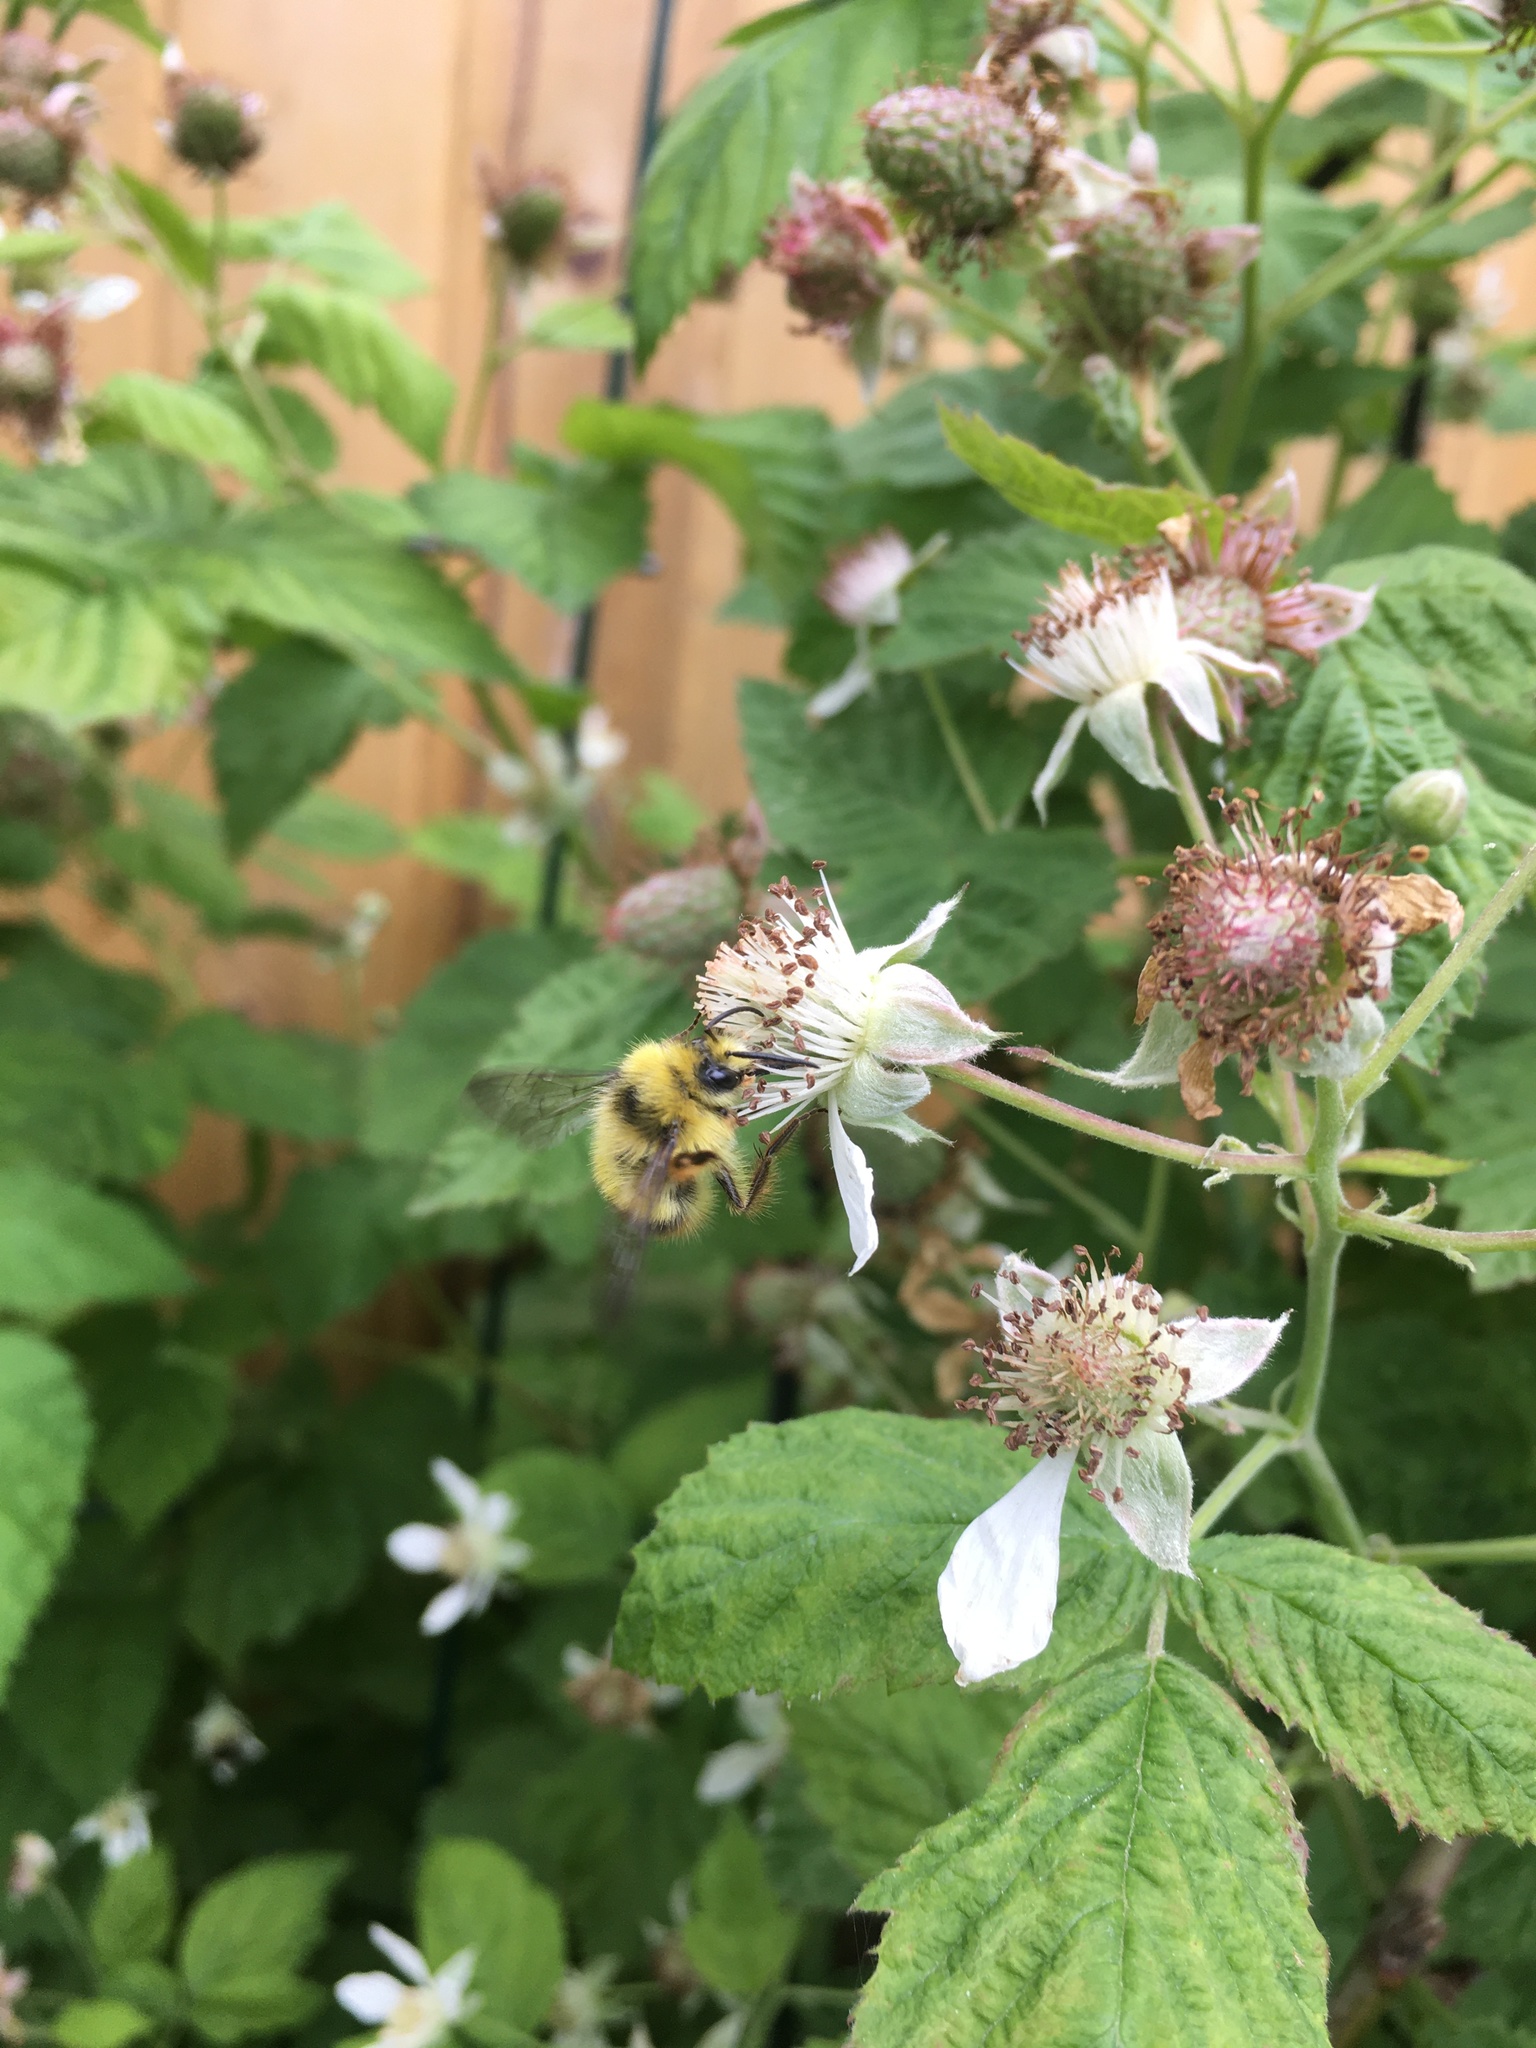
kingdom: Animalia
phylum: Arthropoda
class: Insecta
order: Hymenoptera
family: Apidae
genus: Bombus
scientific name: Bombus mixtus
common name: Fuzzy-horned bumble bee
